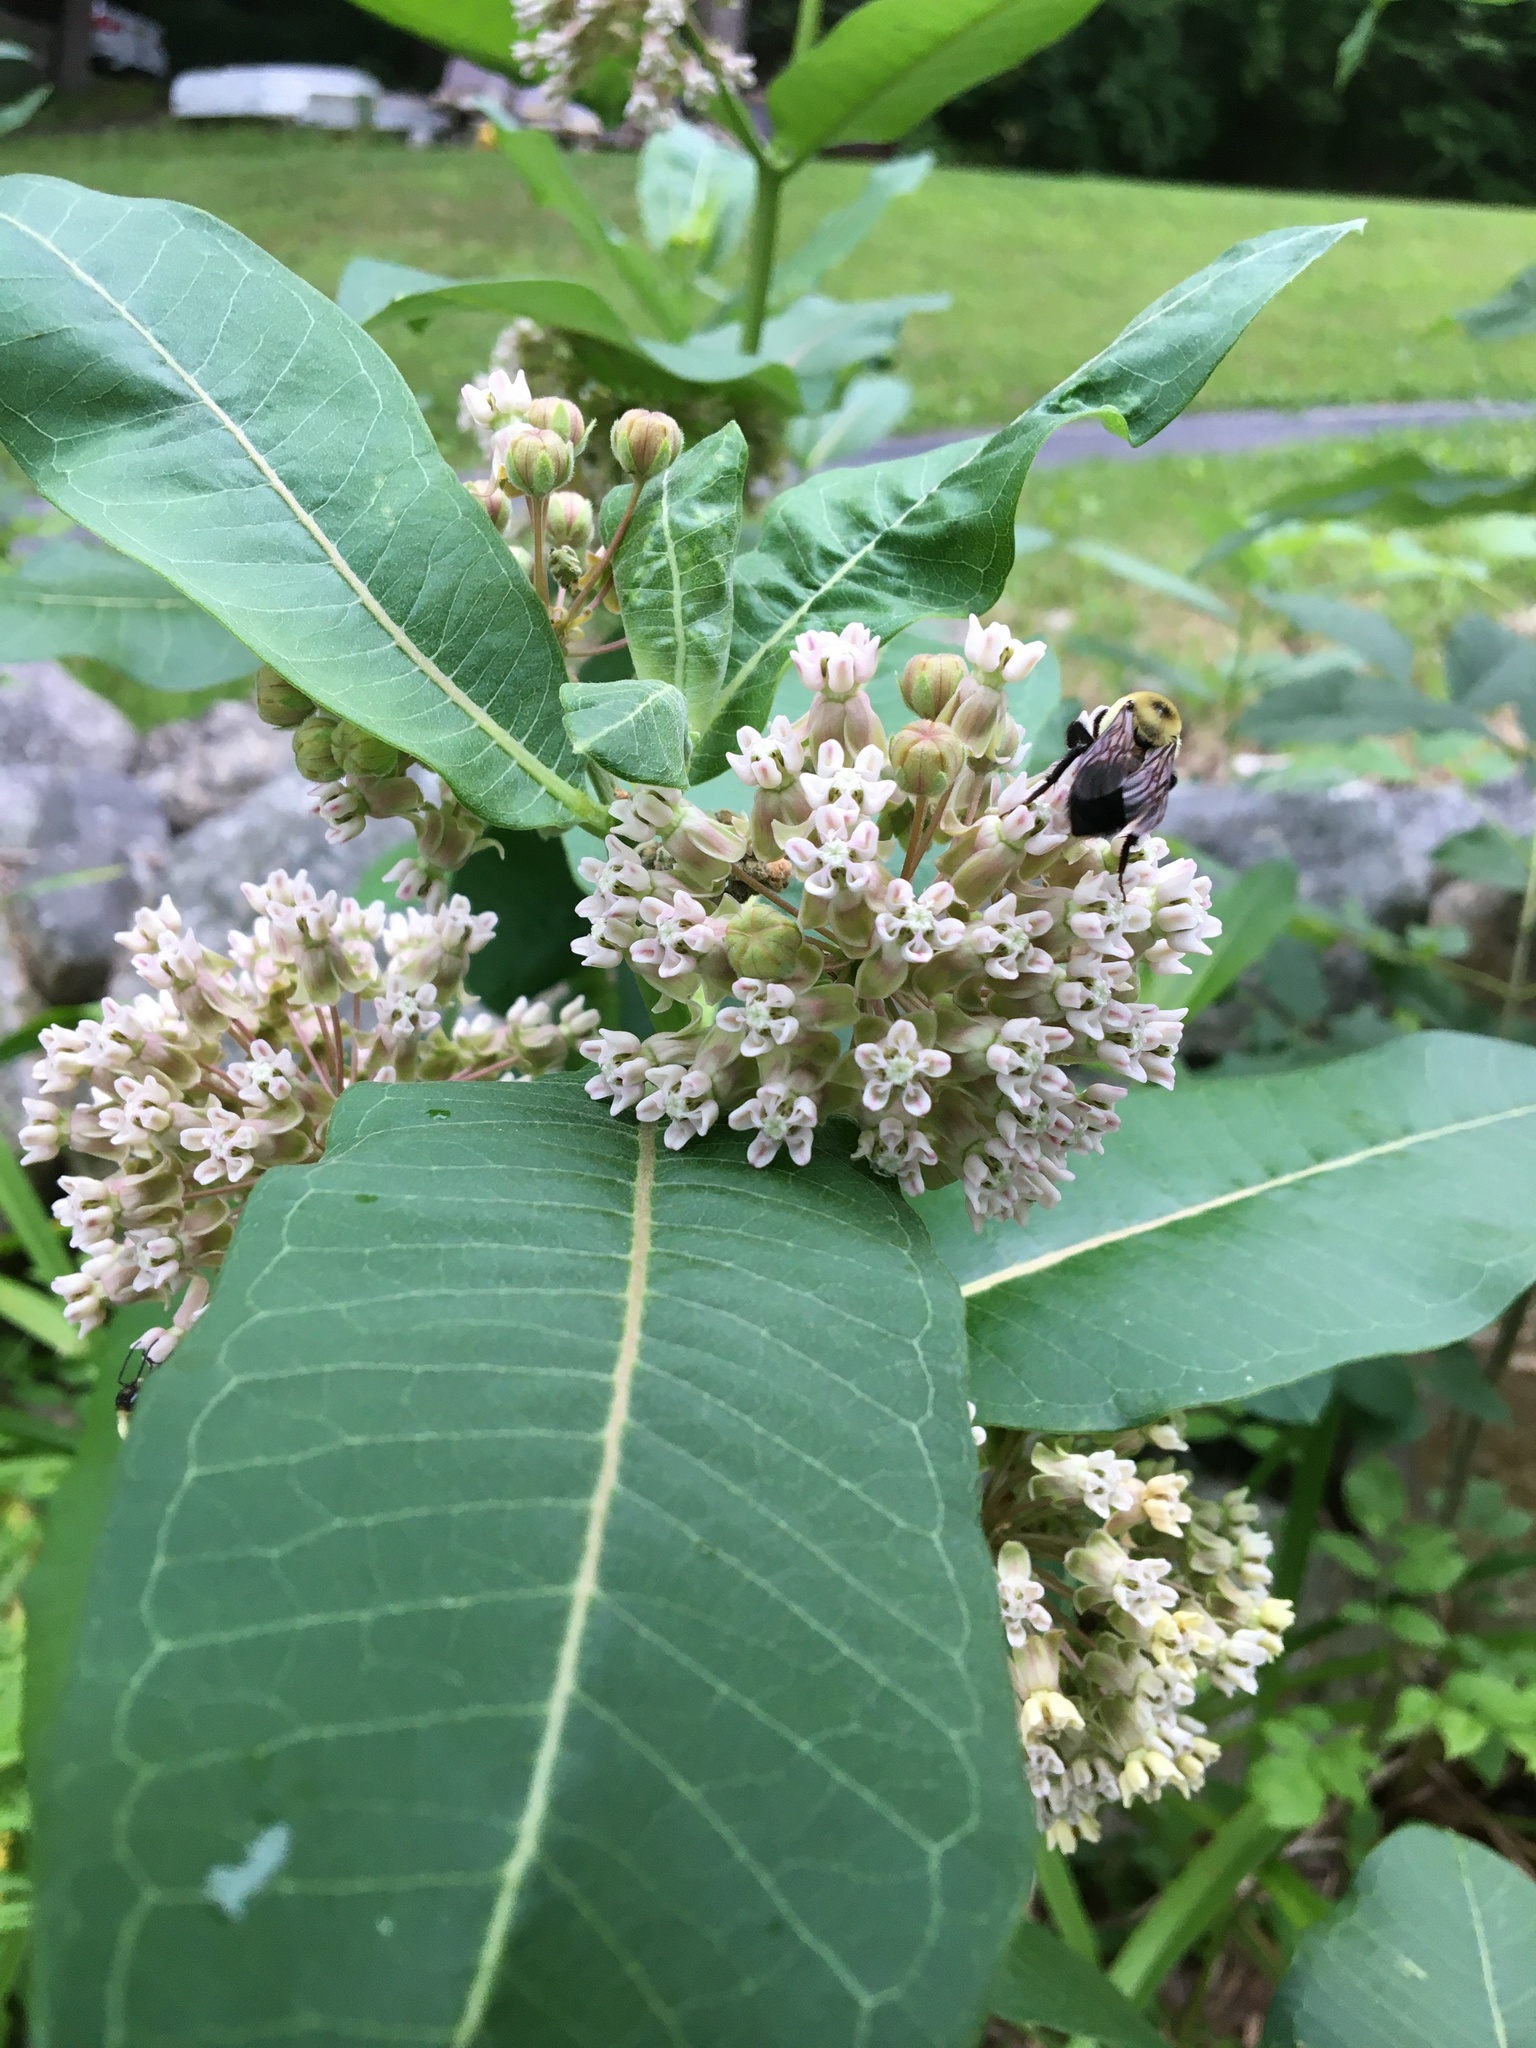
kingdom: Plantae
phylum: Tracheophyta
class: Magnoliopsida
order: Gentianales
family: Apocynaceae
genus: Asclepias
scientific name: Asclepias syriaca
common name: Common milkweed
